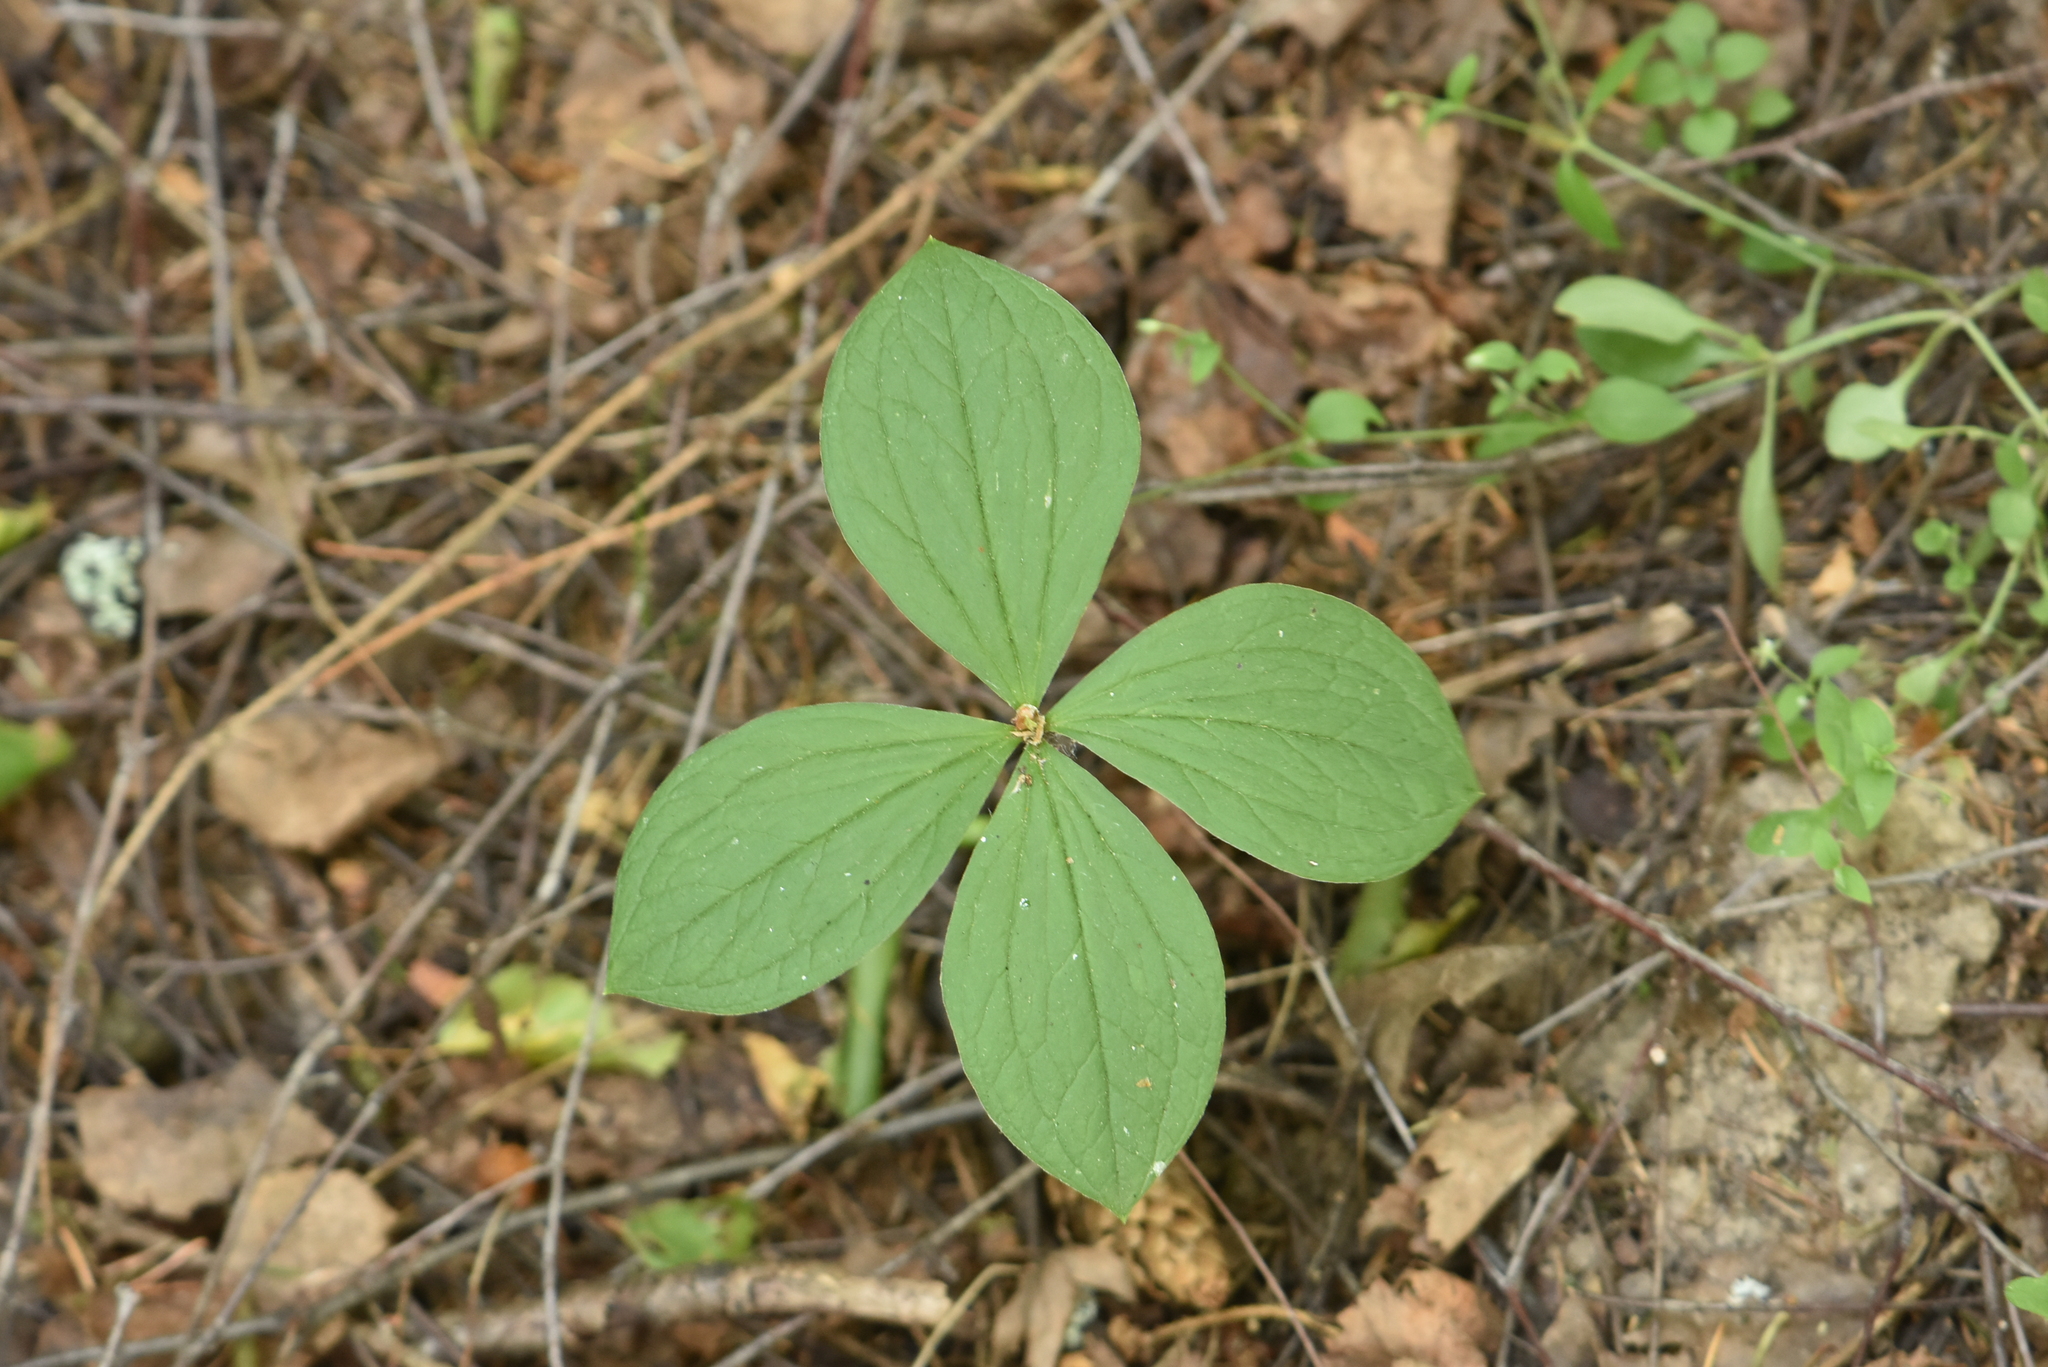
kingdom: Plantae
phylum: Tracheophyta
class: Liliopsida
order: Liliales
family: Melanthiaceae
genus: Paris
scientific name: Paris quadrifolia
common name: Herb-paris
